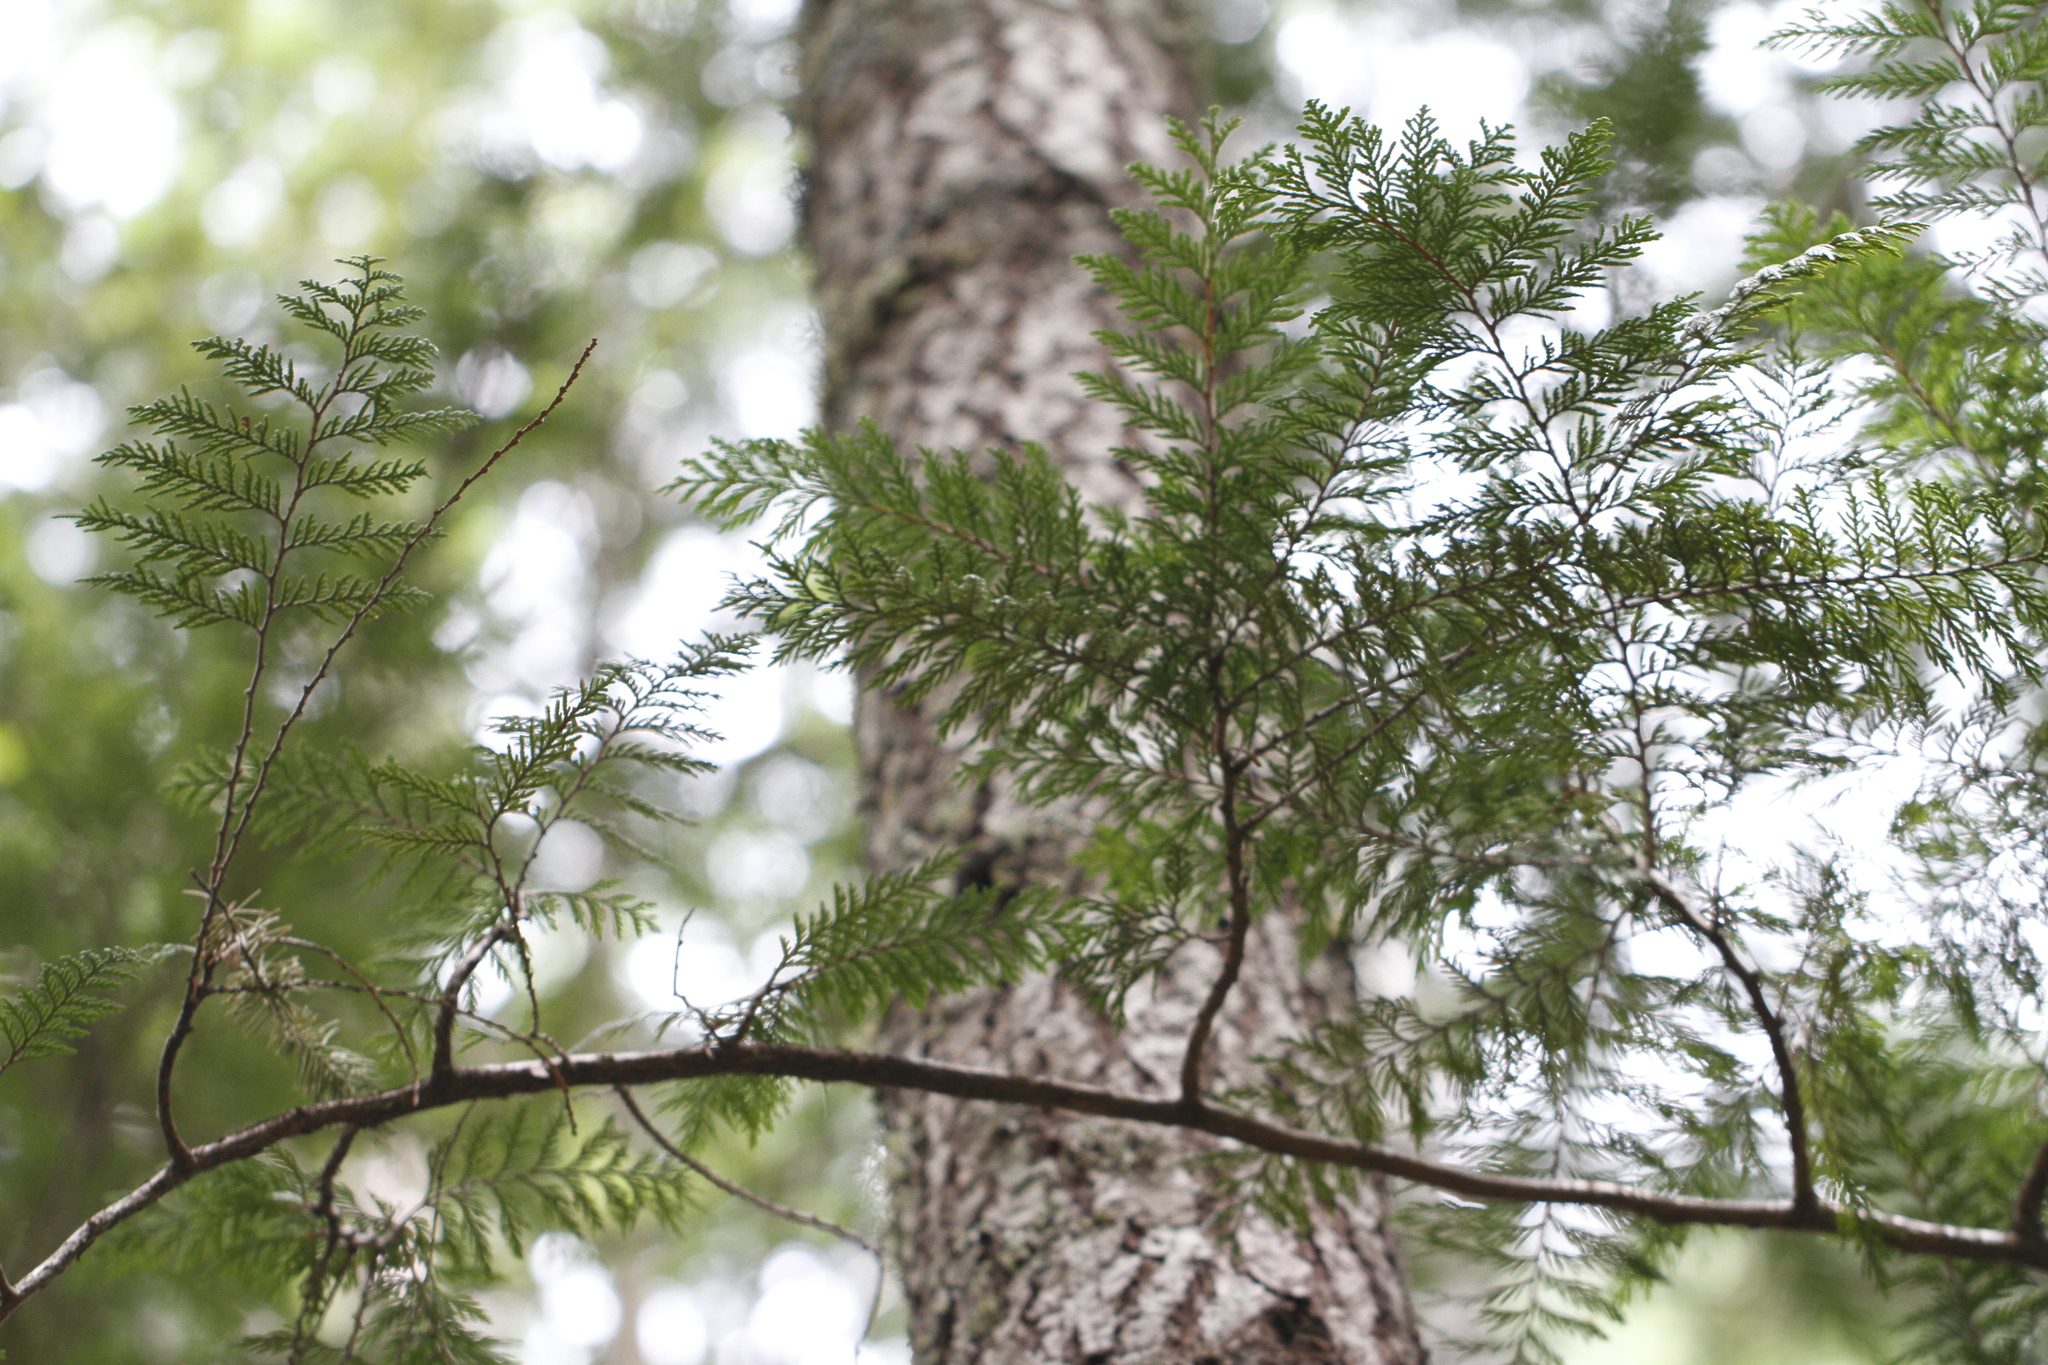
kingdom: Plantae
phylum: Tracheophyta
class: Pinopsida
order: Pinales
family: Cupressaceae
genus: Thuja
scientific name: Thuja plicata
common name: Western red-cedar
